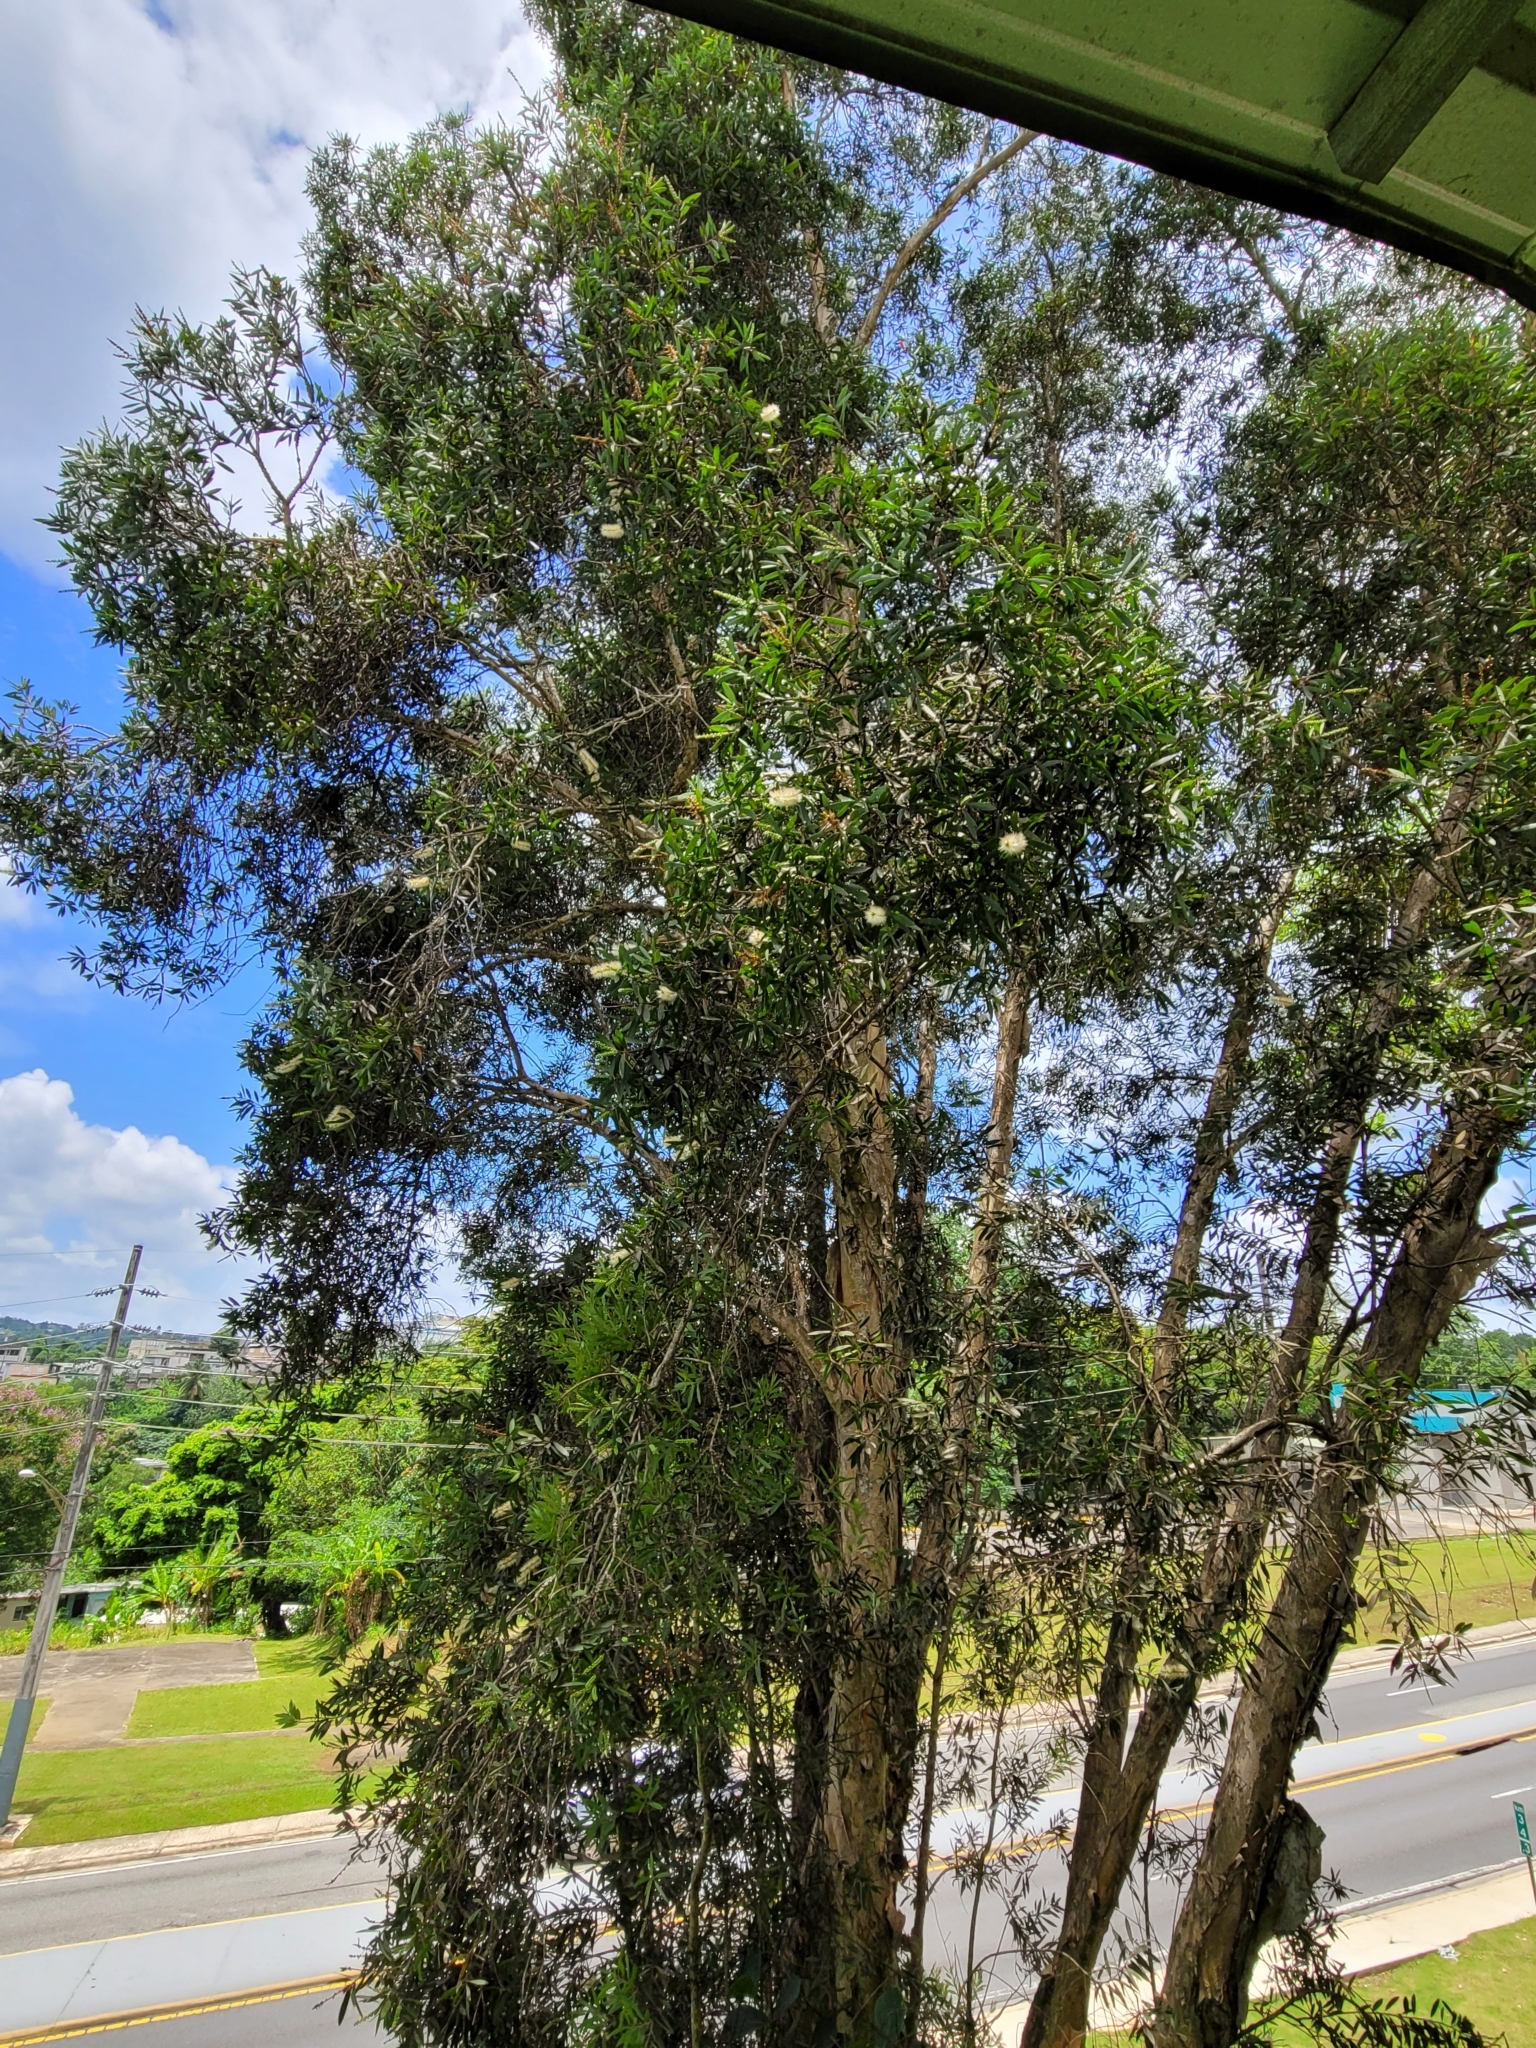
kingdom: Plantae
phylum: Tracheophyta
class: Magnoliopsida
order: Myrtales
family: Myrtaceae
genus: Melaleuca
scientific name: Melaleuca quinquenervia
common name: Punktree
